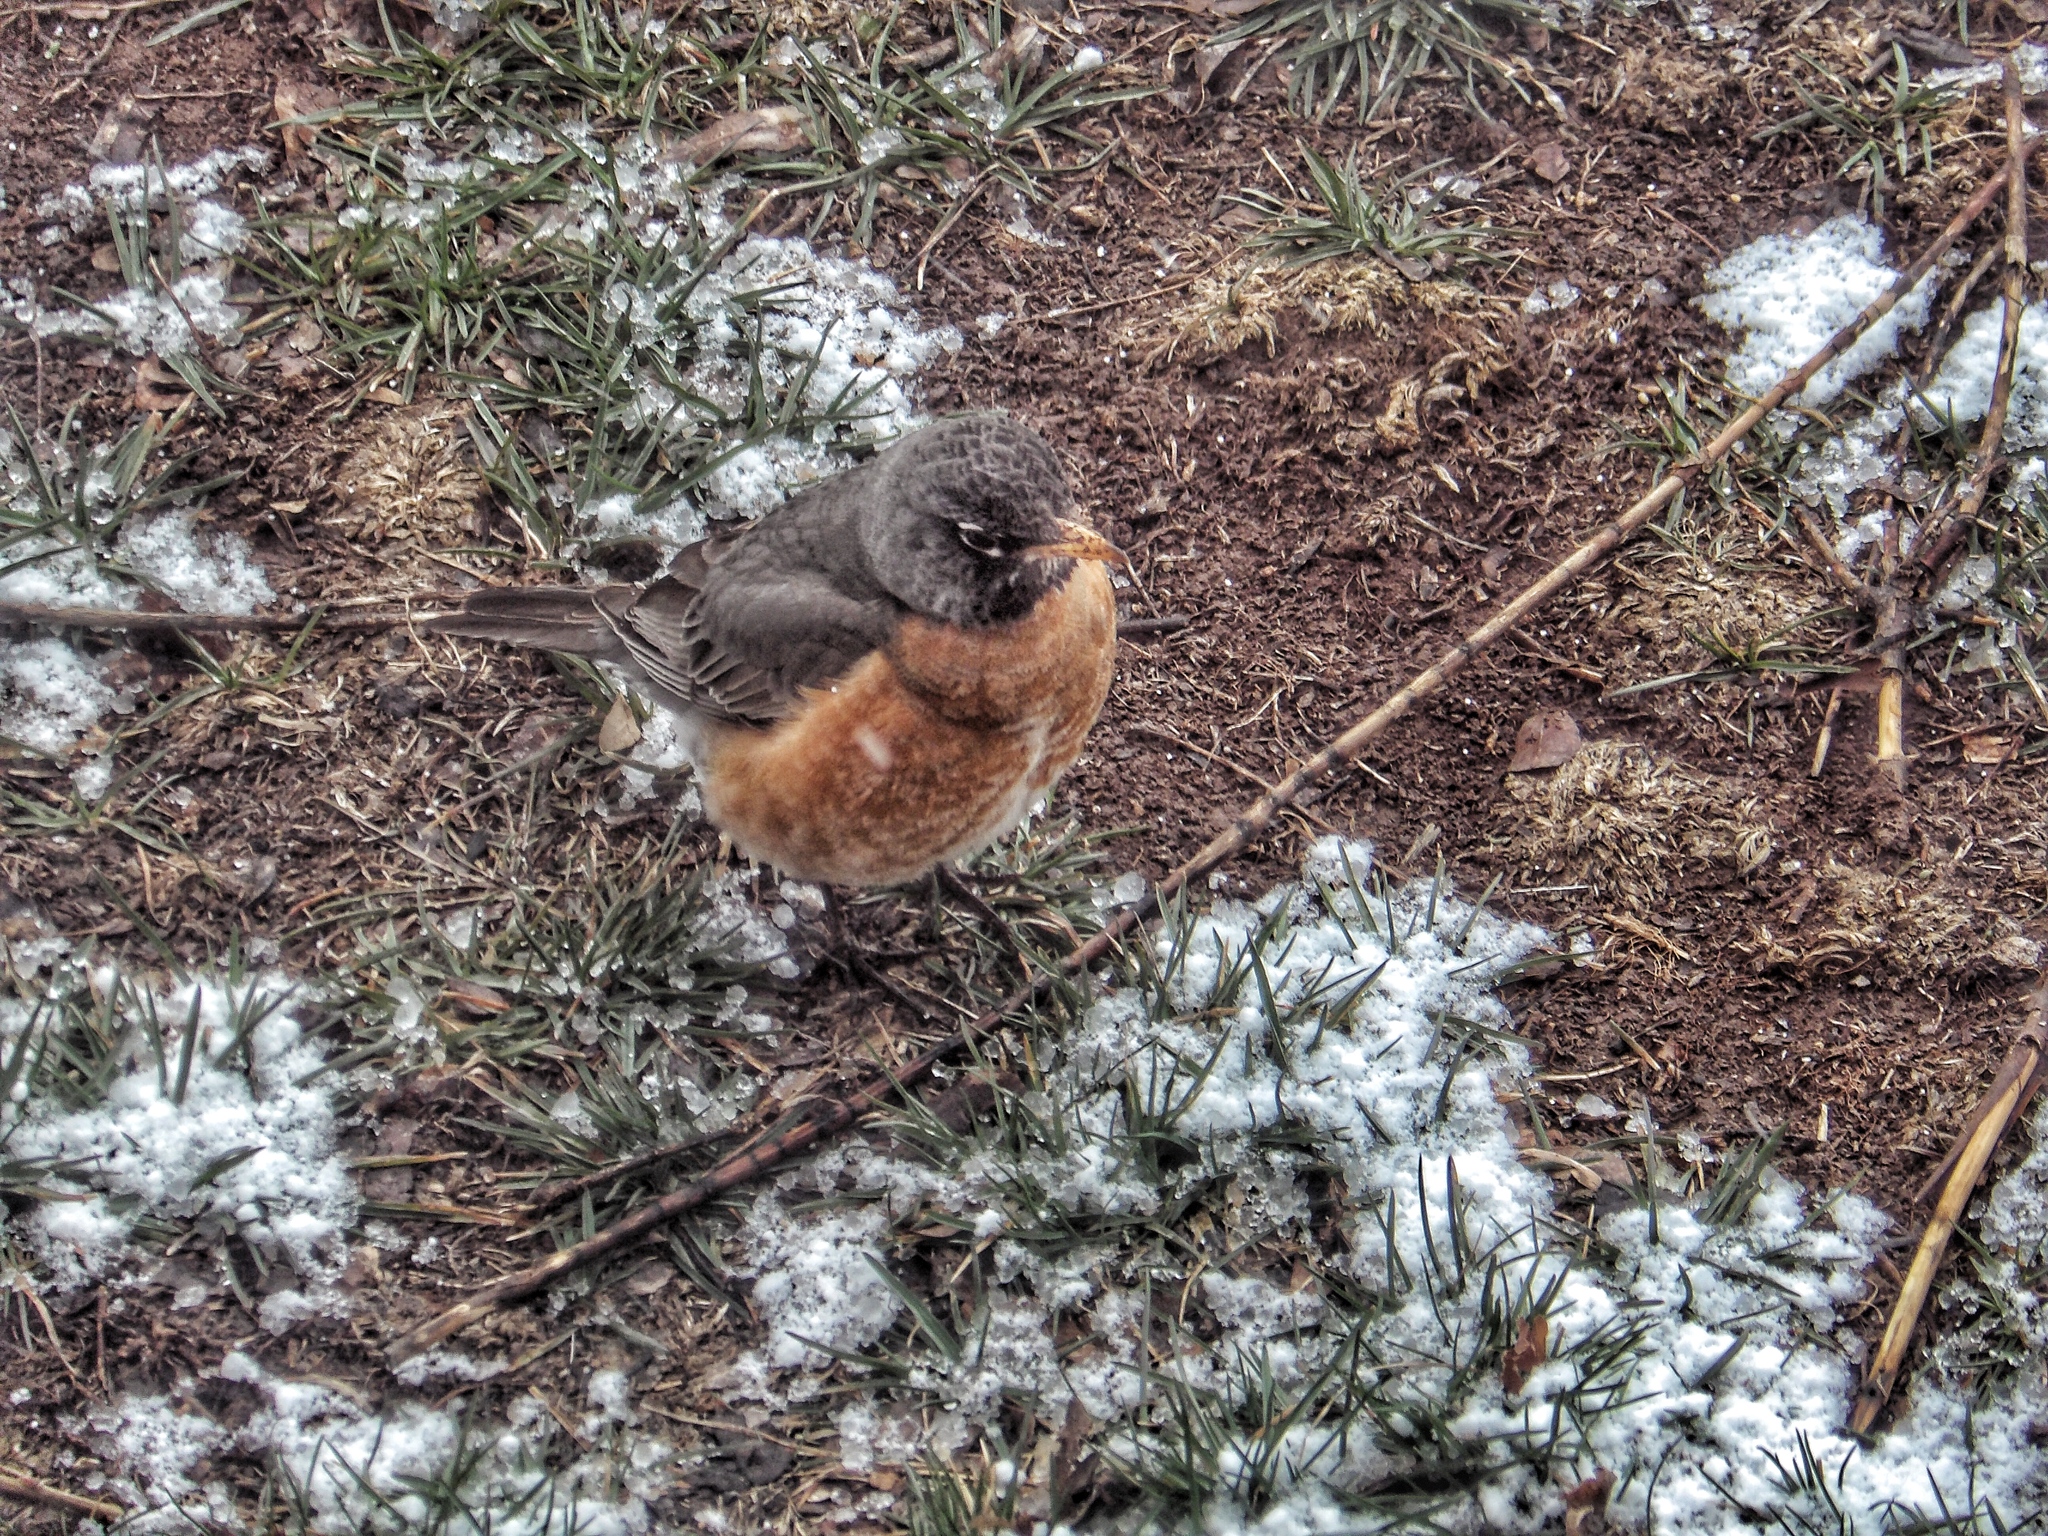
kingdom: Animalia
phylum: Chordata
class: Aves
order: Passeriformes
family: Turdidae
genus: Turdus
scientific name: Turdus migratorius
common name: American robin
